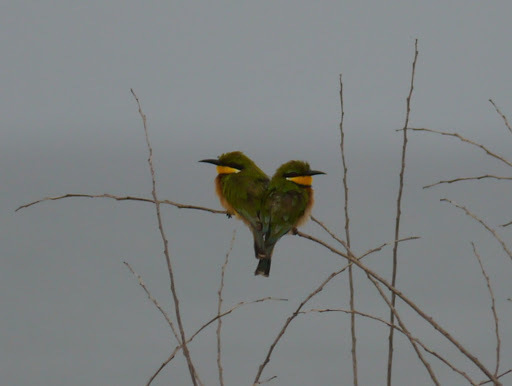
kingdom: Animalia
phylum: Chordata
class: Aves
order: Coraciiformes
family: Meropidae
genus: Merops
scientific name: Merops variegatus
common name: Blue-breasted bee-eater
